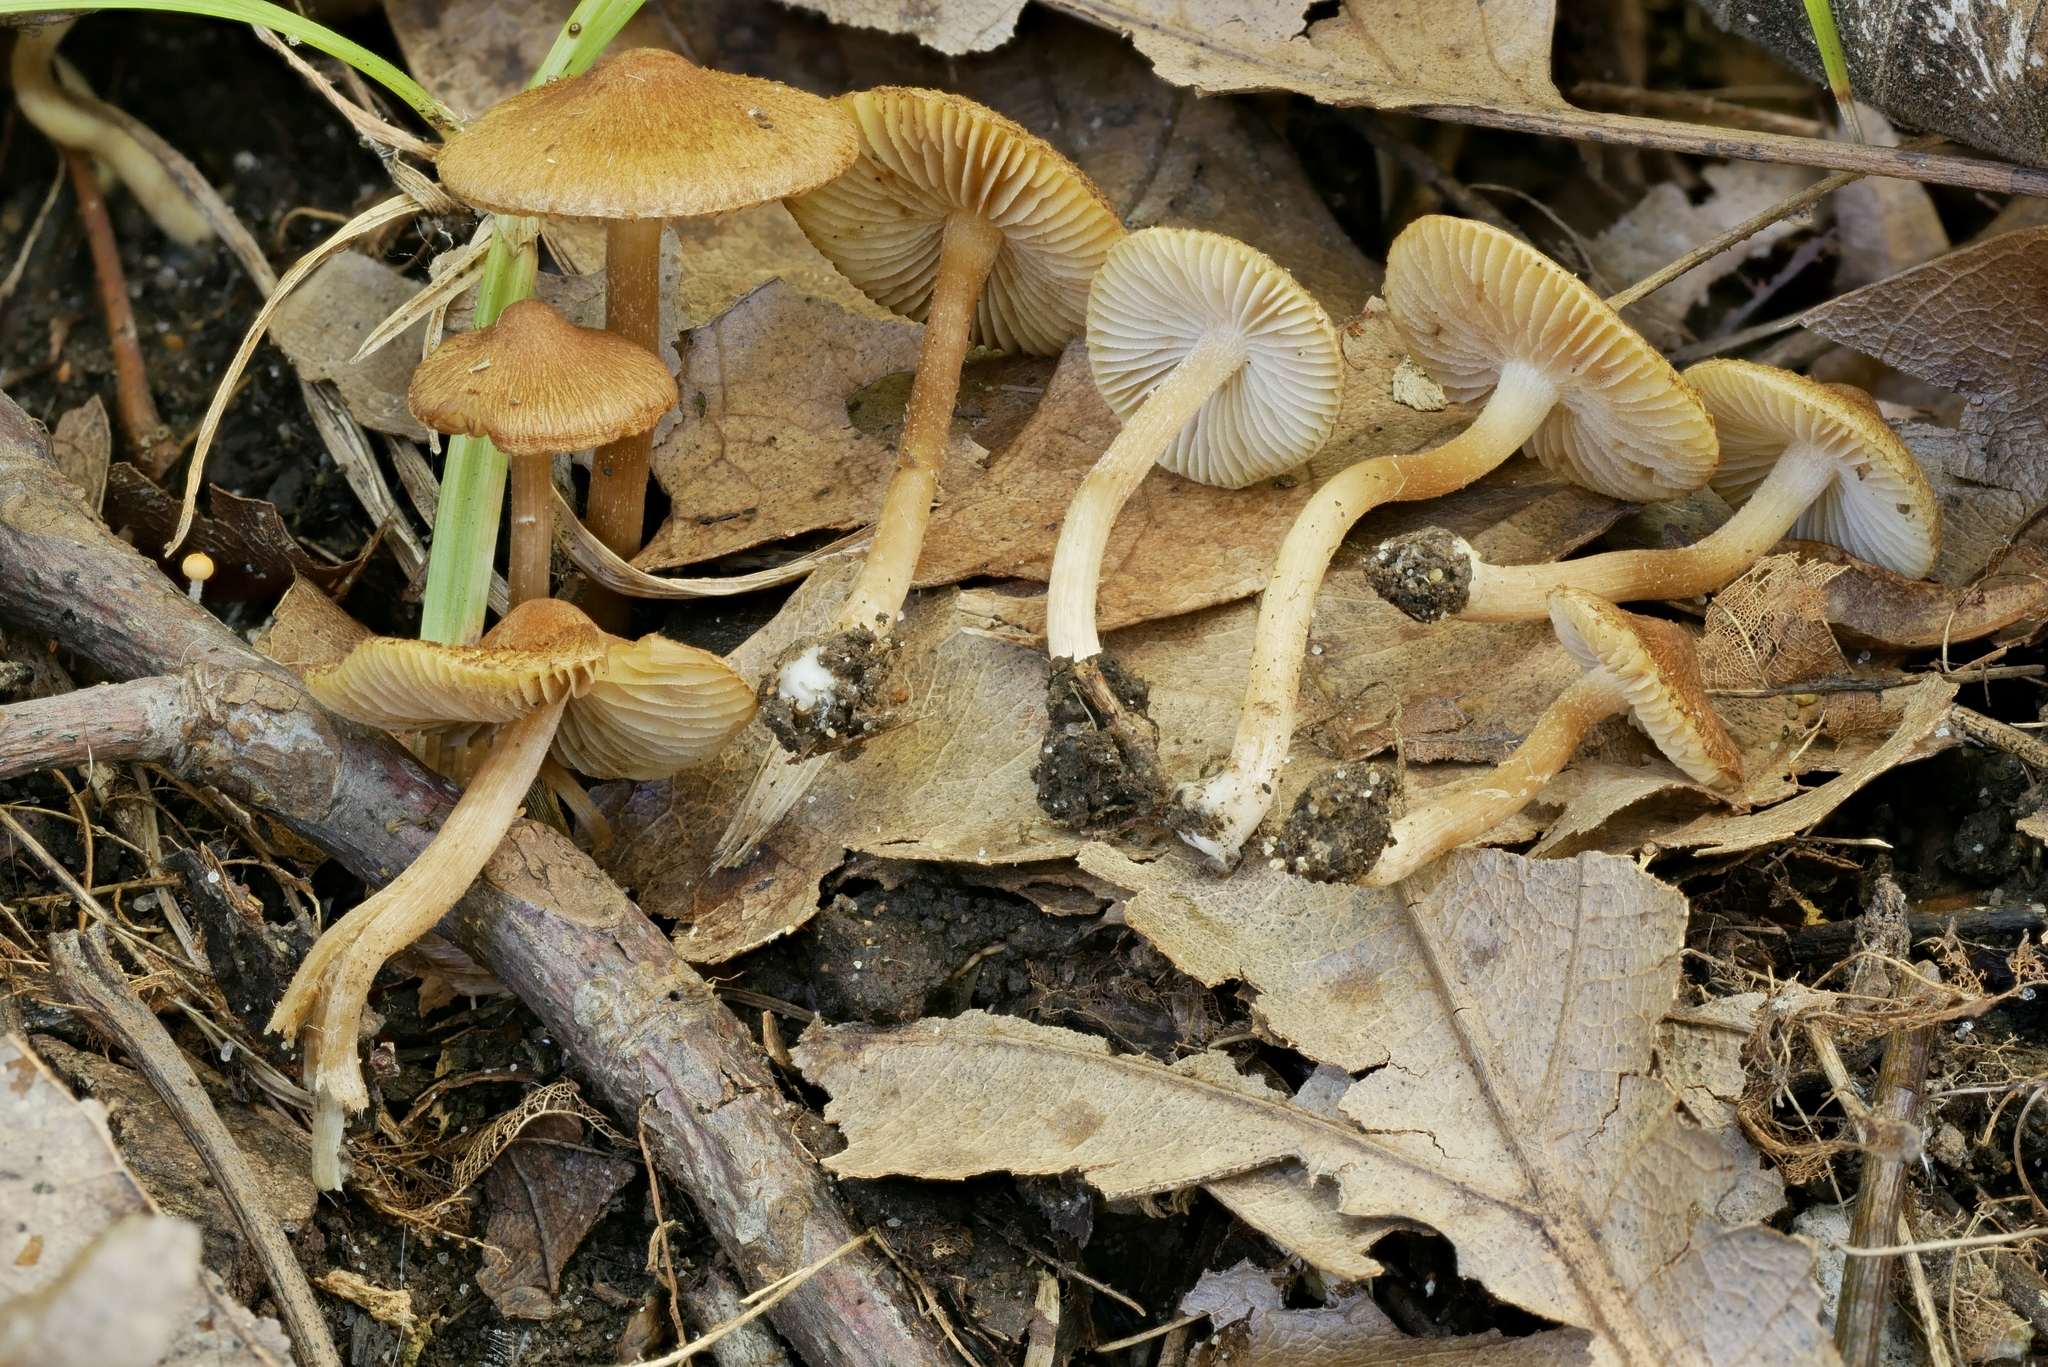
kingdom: Fungi
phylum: Basidiomycota
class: Agaricomycetes
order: Agaricales
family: Inocybaceae
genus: Inocybe
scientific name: Inocybe microteroxantha
